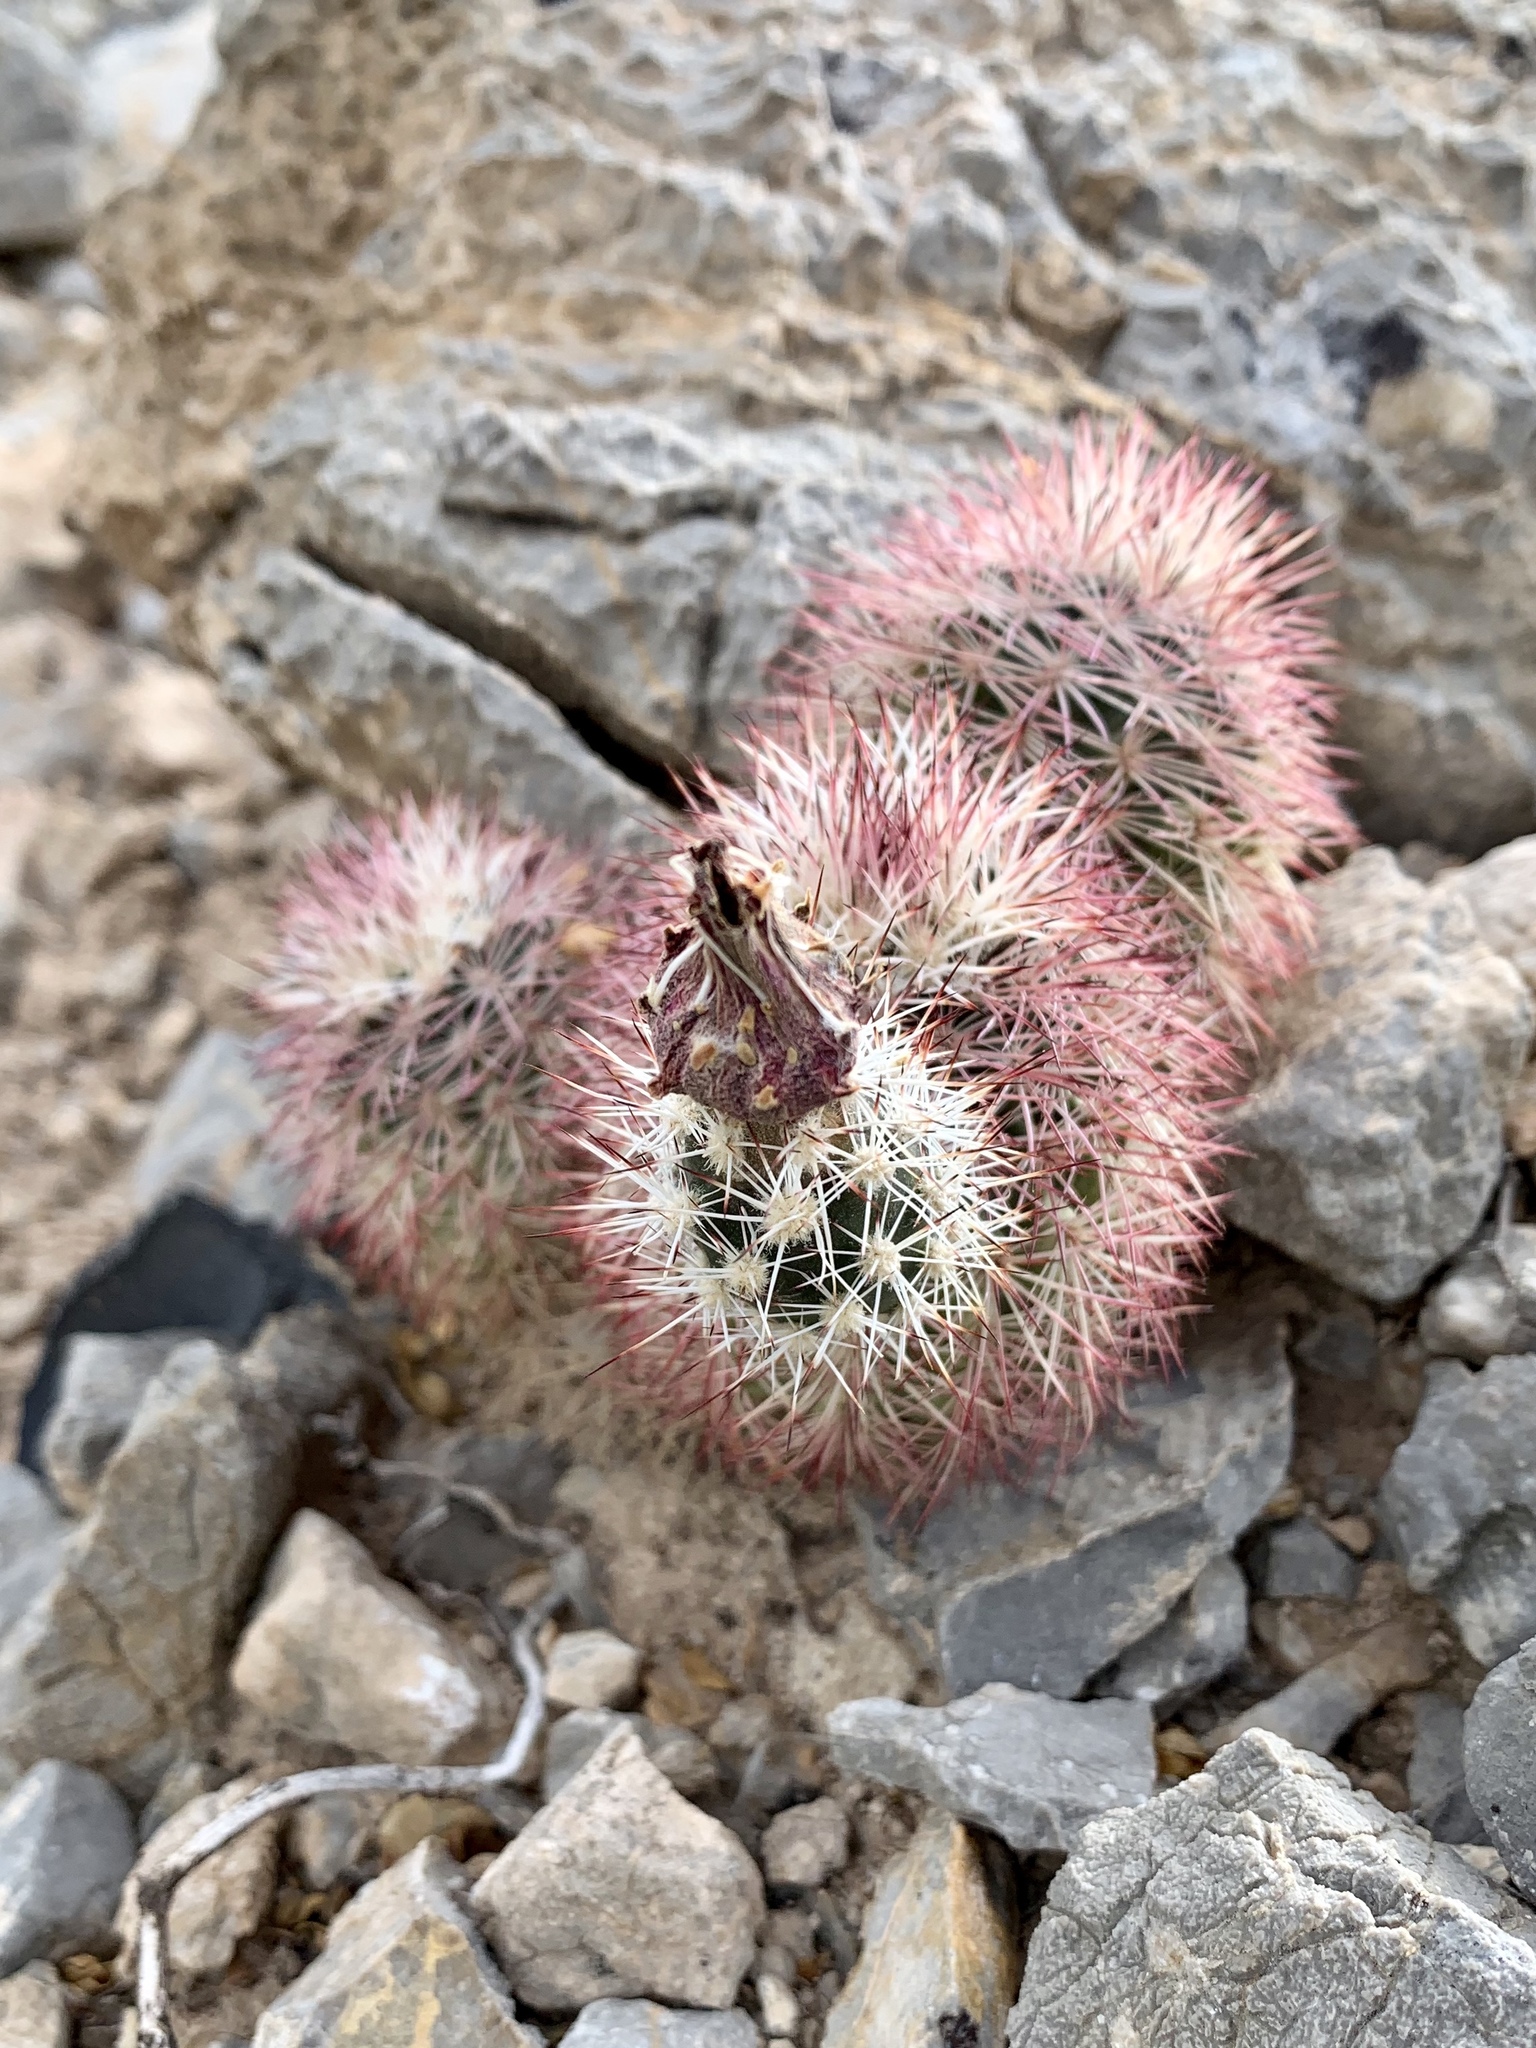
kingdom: Plantae
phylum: Tracheophyta
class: Magnoliopsida
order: Caryophyllales
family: Cactaceae
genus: Echinocereus
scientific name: Echinocereus dasyacanthus
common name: Spiny hedgehog cactus
